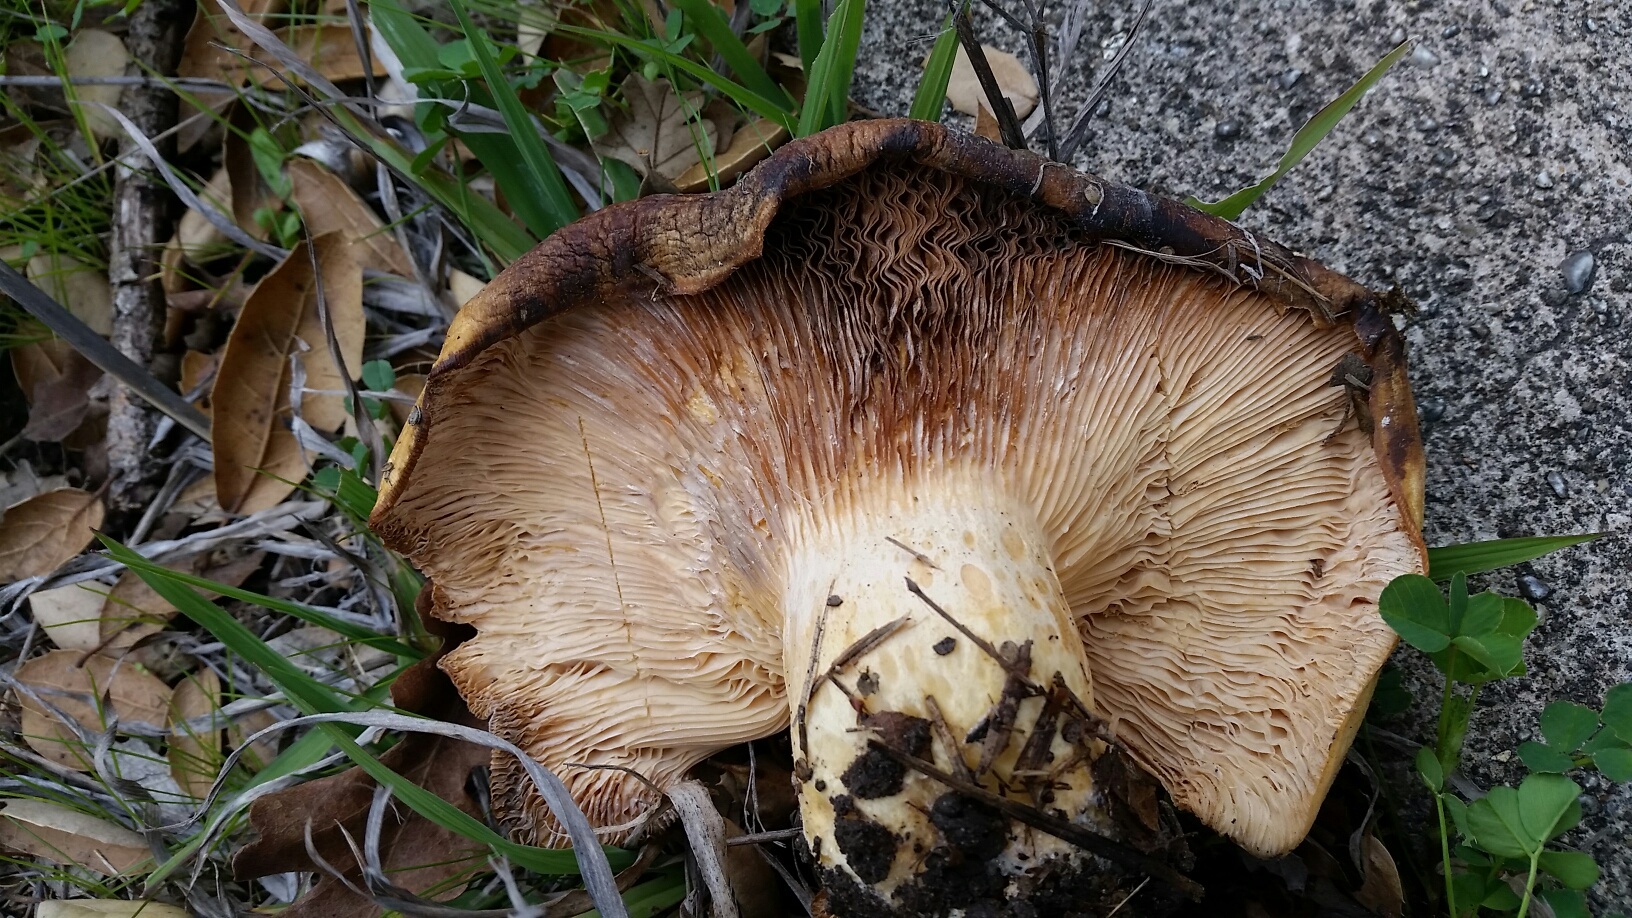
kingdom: Fungi
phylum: Basidiomycota
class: Agaricomycetes
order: Russulales
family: Russulaceae
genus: Lactarius
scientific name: Lactarius alnicola
